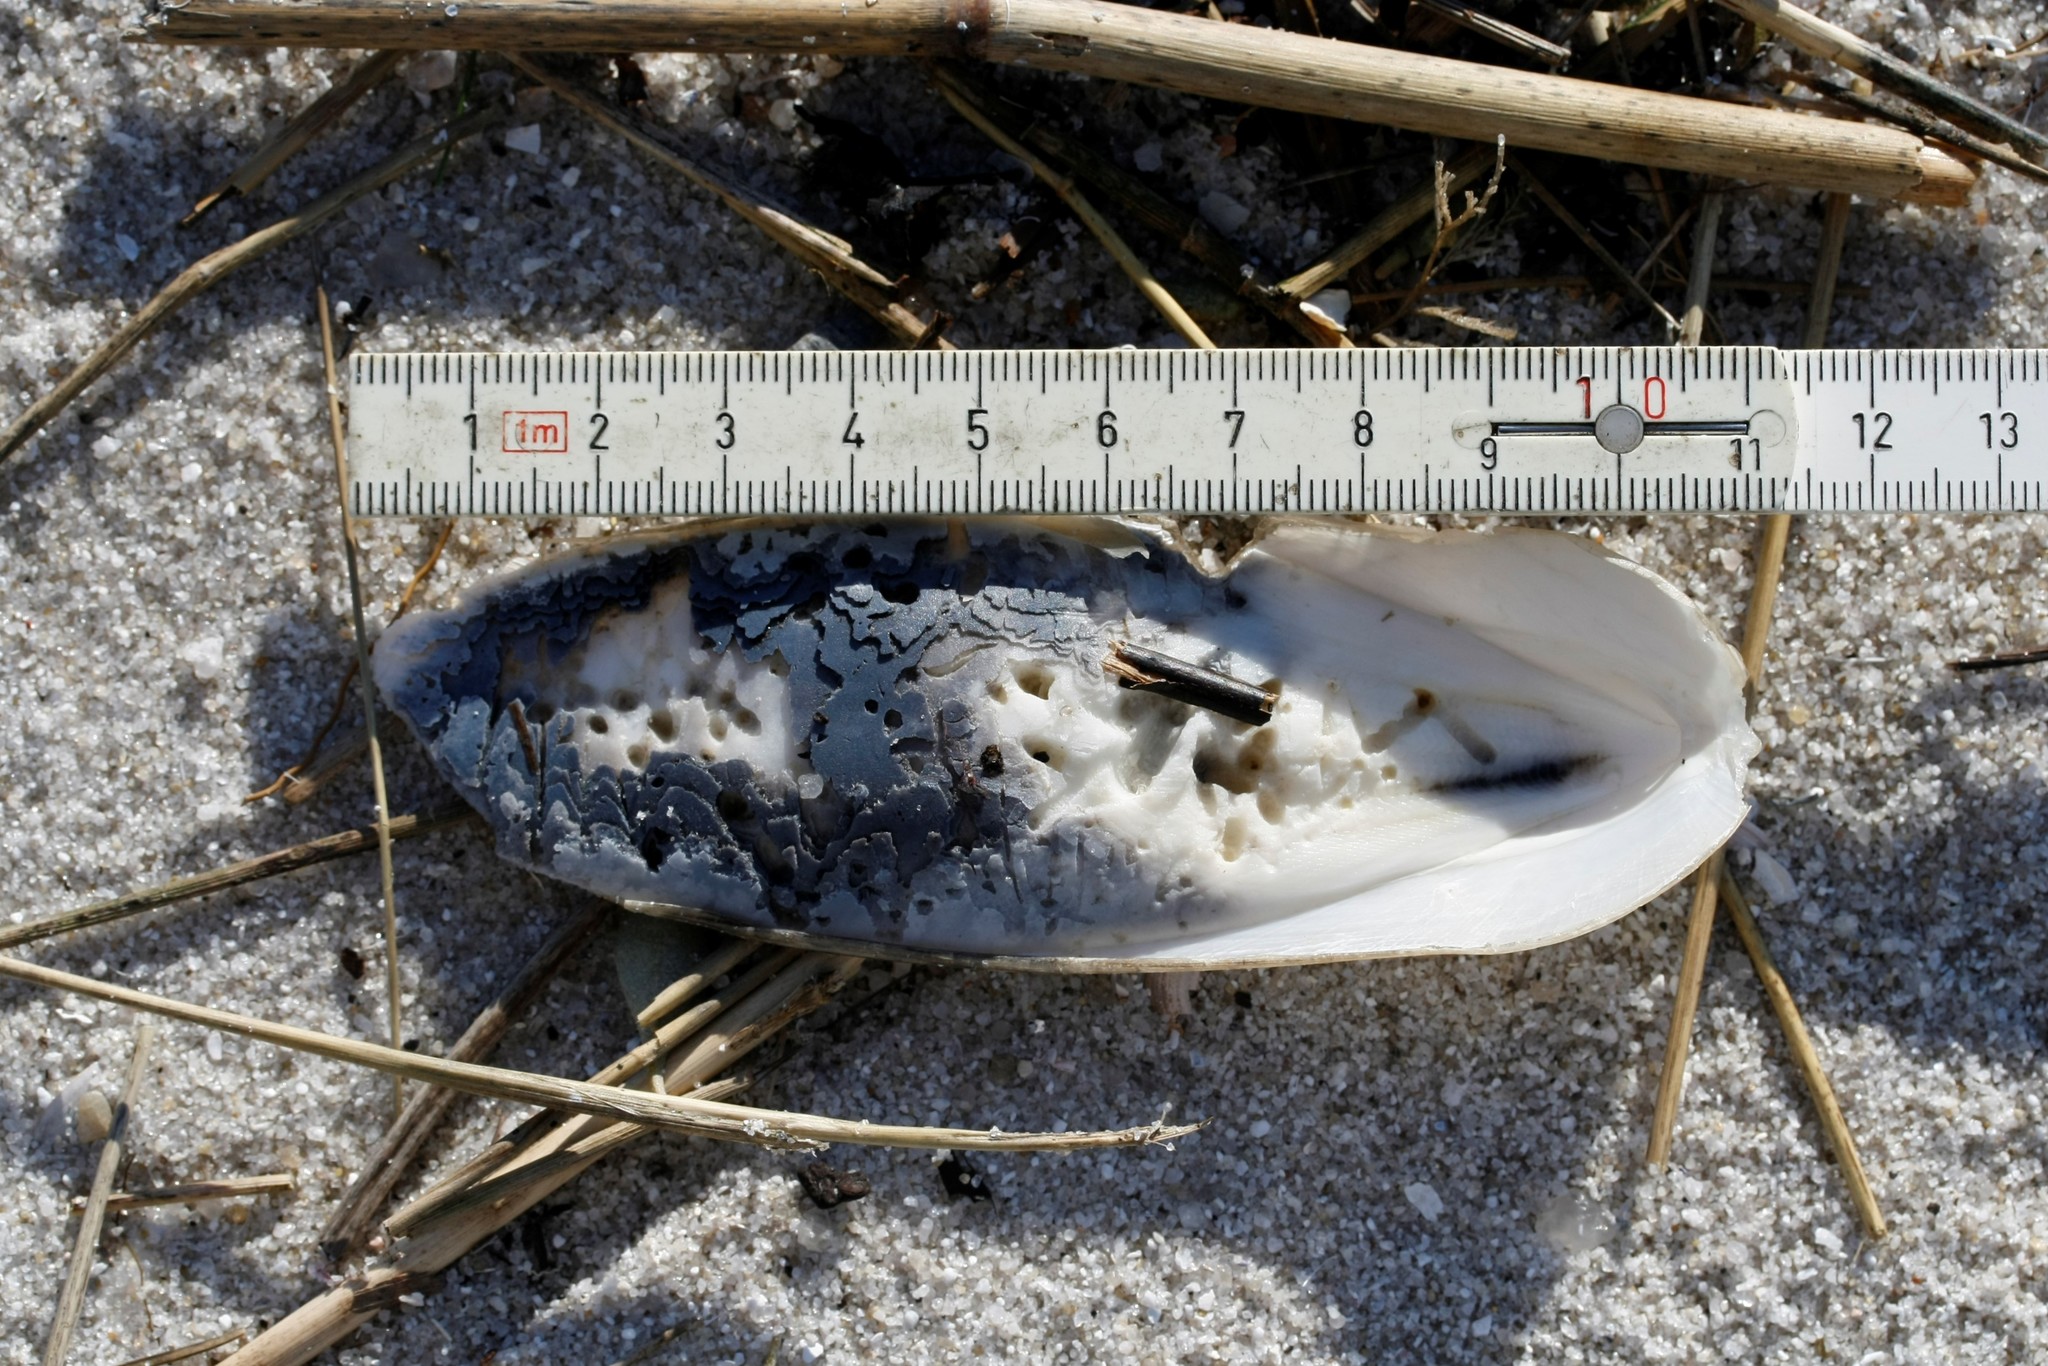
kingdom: Animalia
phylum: Mollusca
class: Cephalopoda
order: Sepiida
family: Sepiidae
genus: Sepia
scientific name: Sepia officinalis
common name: Common cuttlefish
